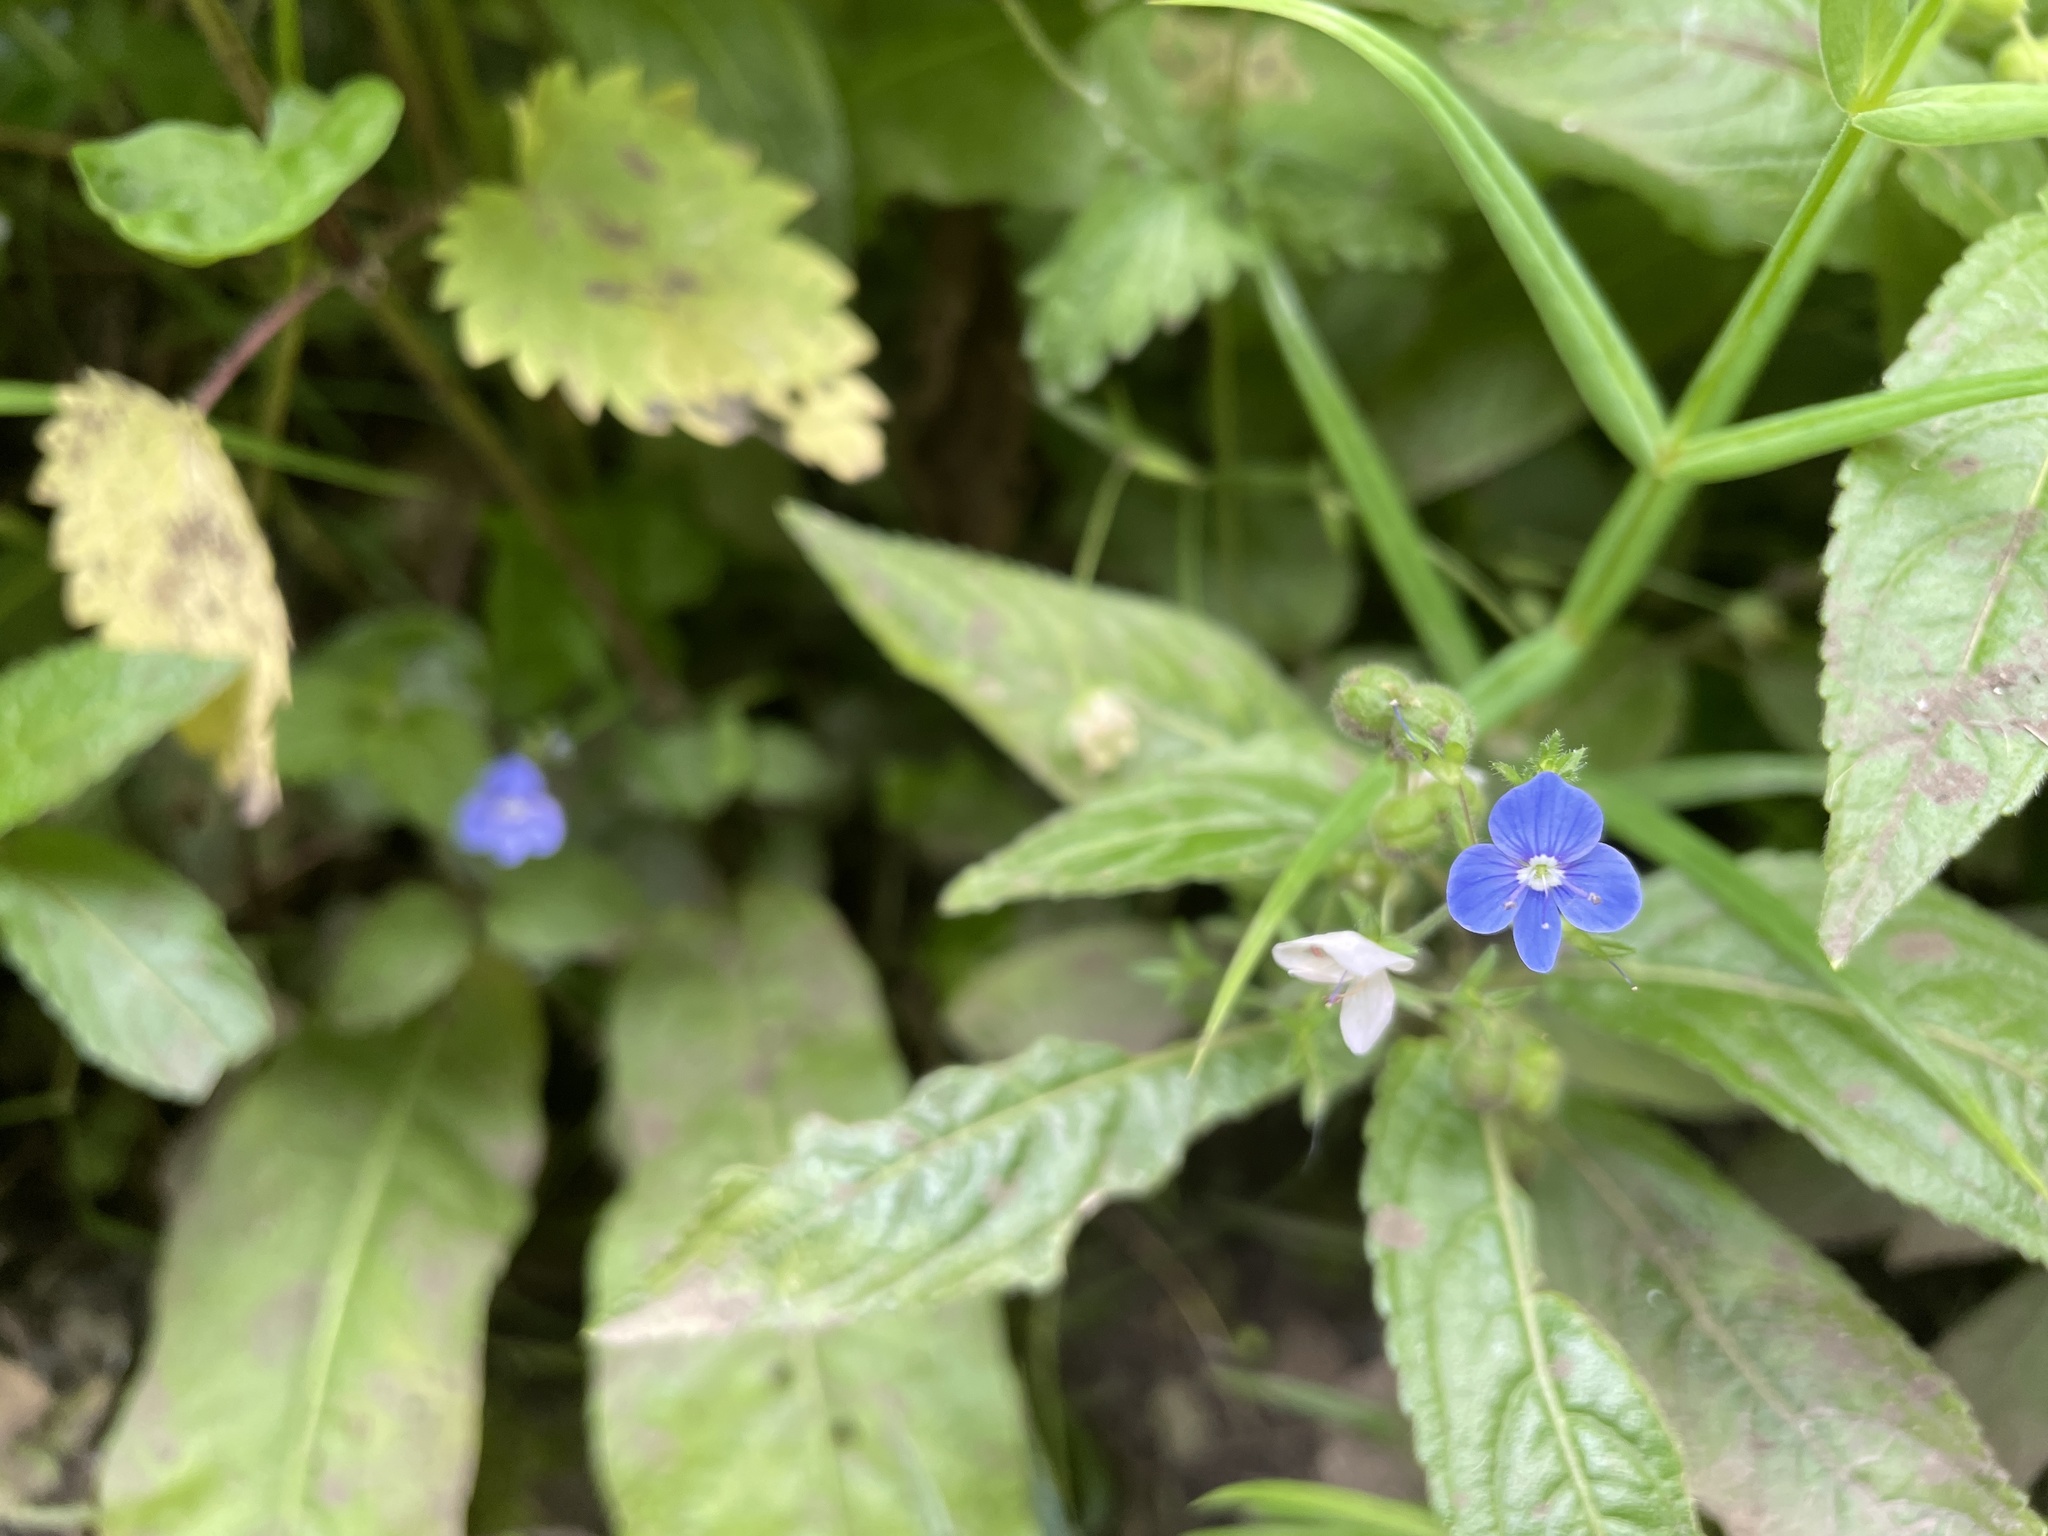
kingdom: Plantae
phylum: Tracheophyta
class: Magnoliopsida
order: Lamiales
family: Plantaginaceae
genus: Veronica
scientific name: Veronica chamaedrys
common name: Germander speedwell
